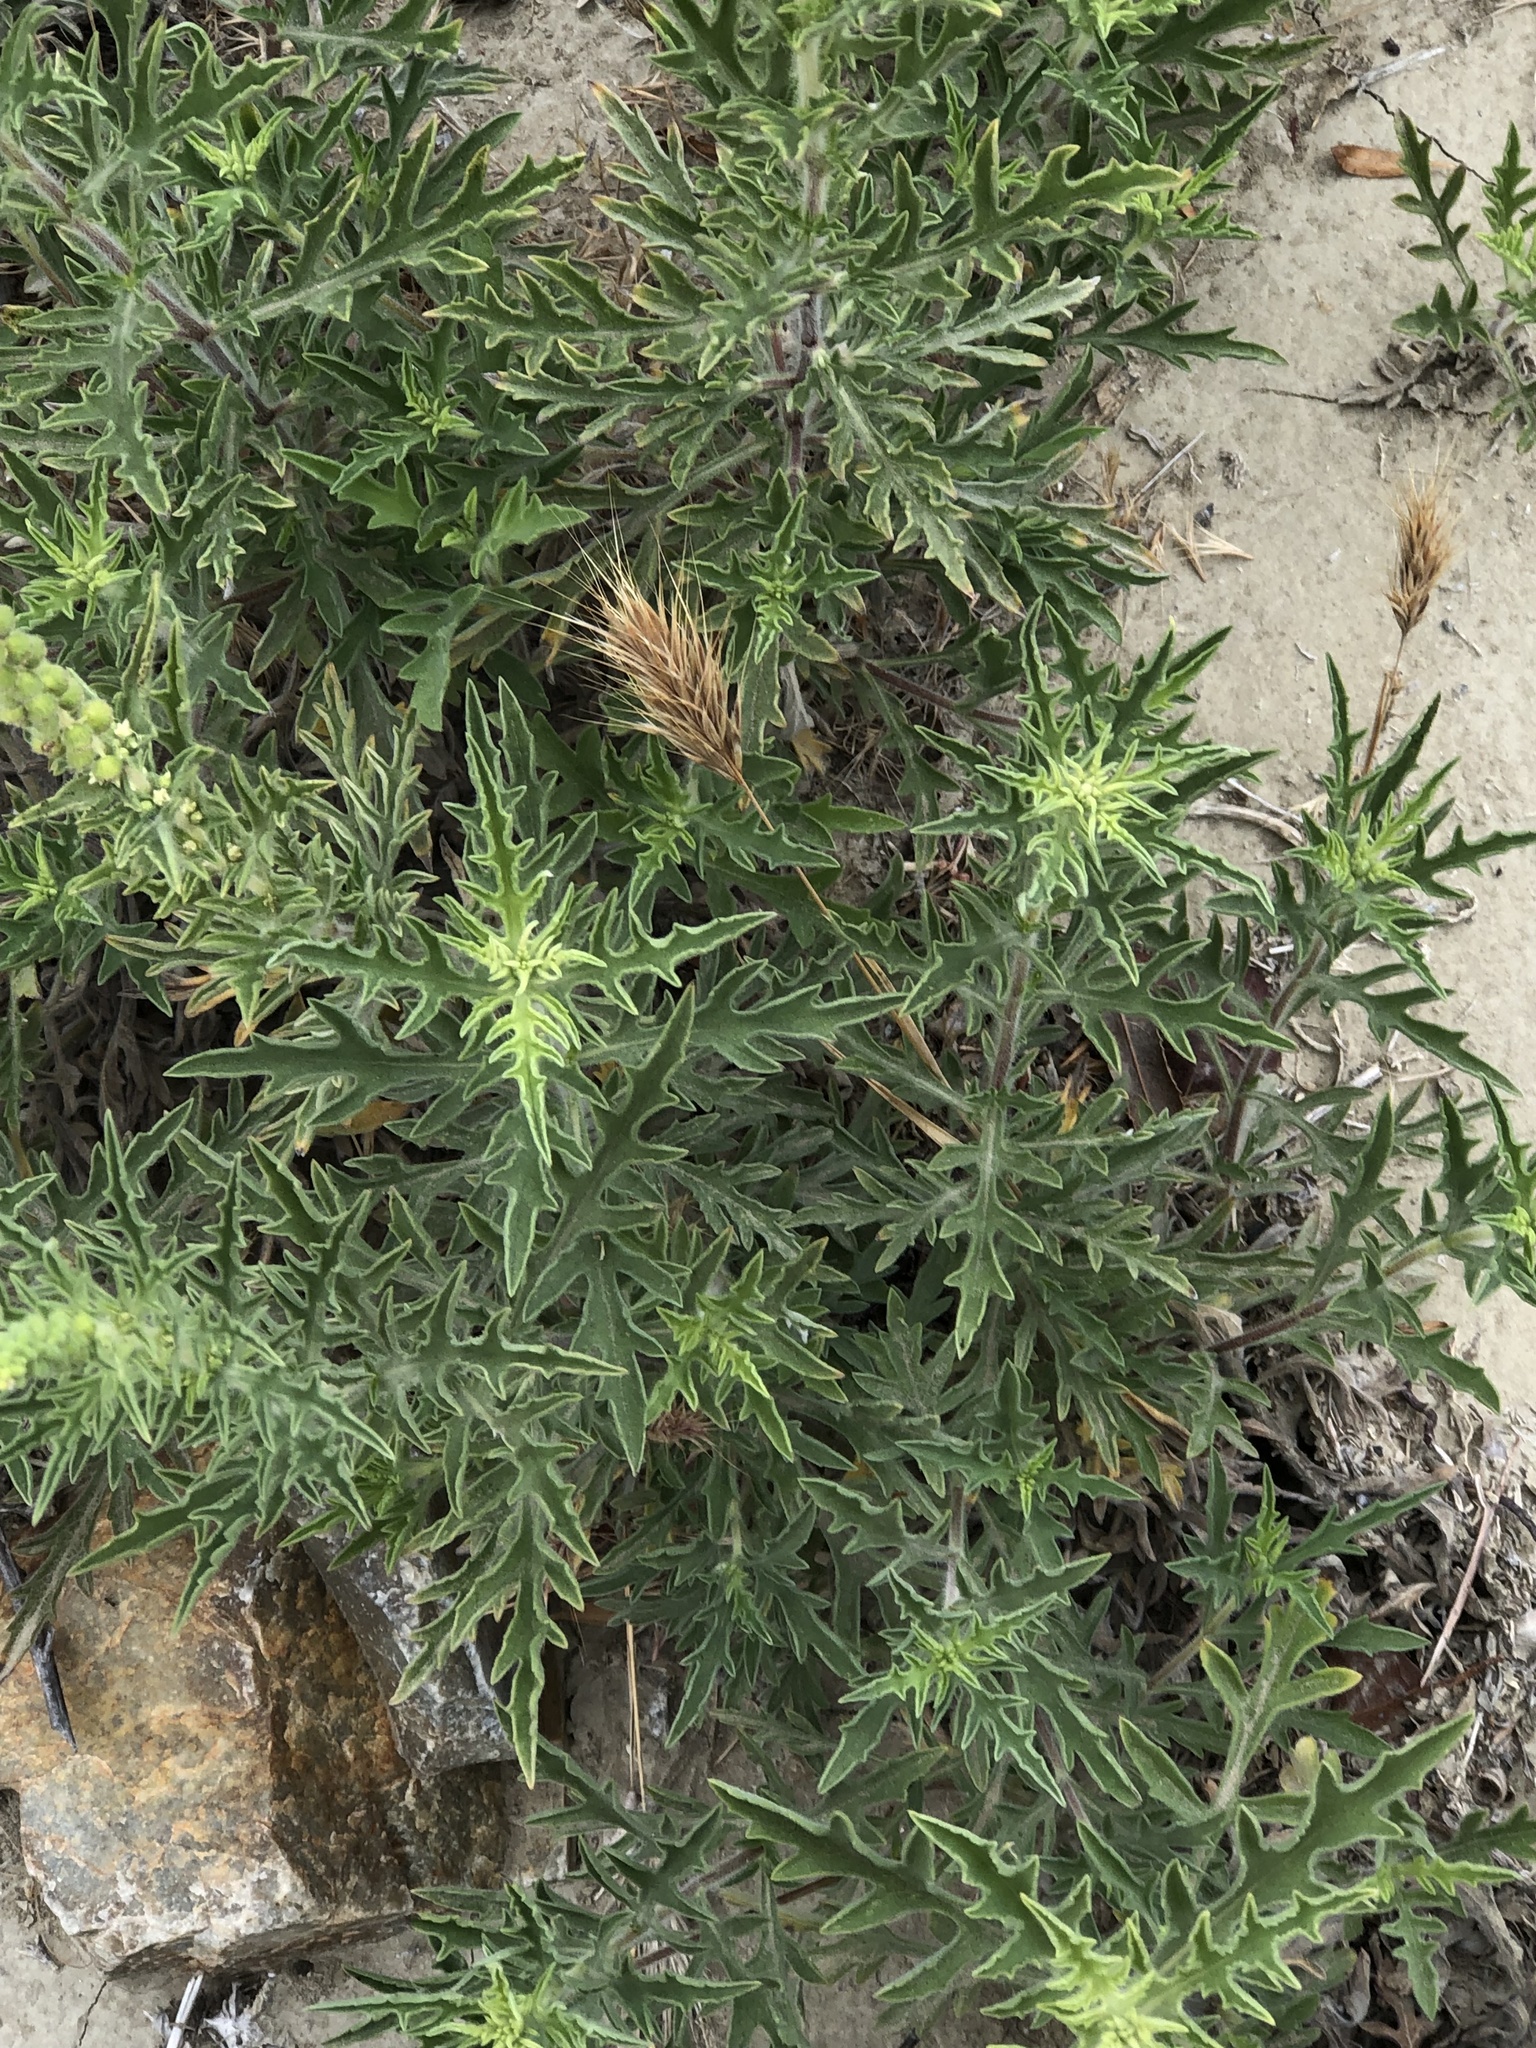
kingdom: Plantae
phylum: Tracheophyta
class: Magnoliopsida
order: Asterales
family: Asteraceae
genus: Ambrosia
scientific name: Ambrosia psilostachya
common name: Perennial ragweed
